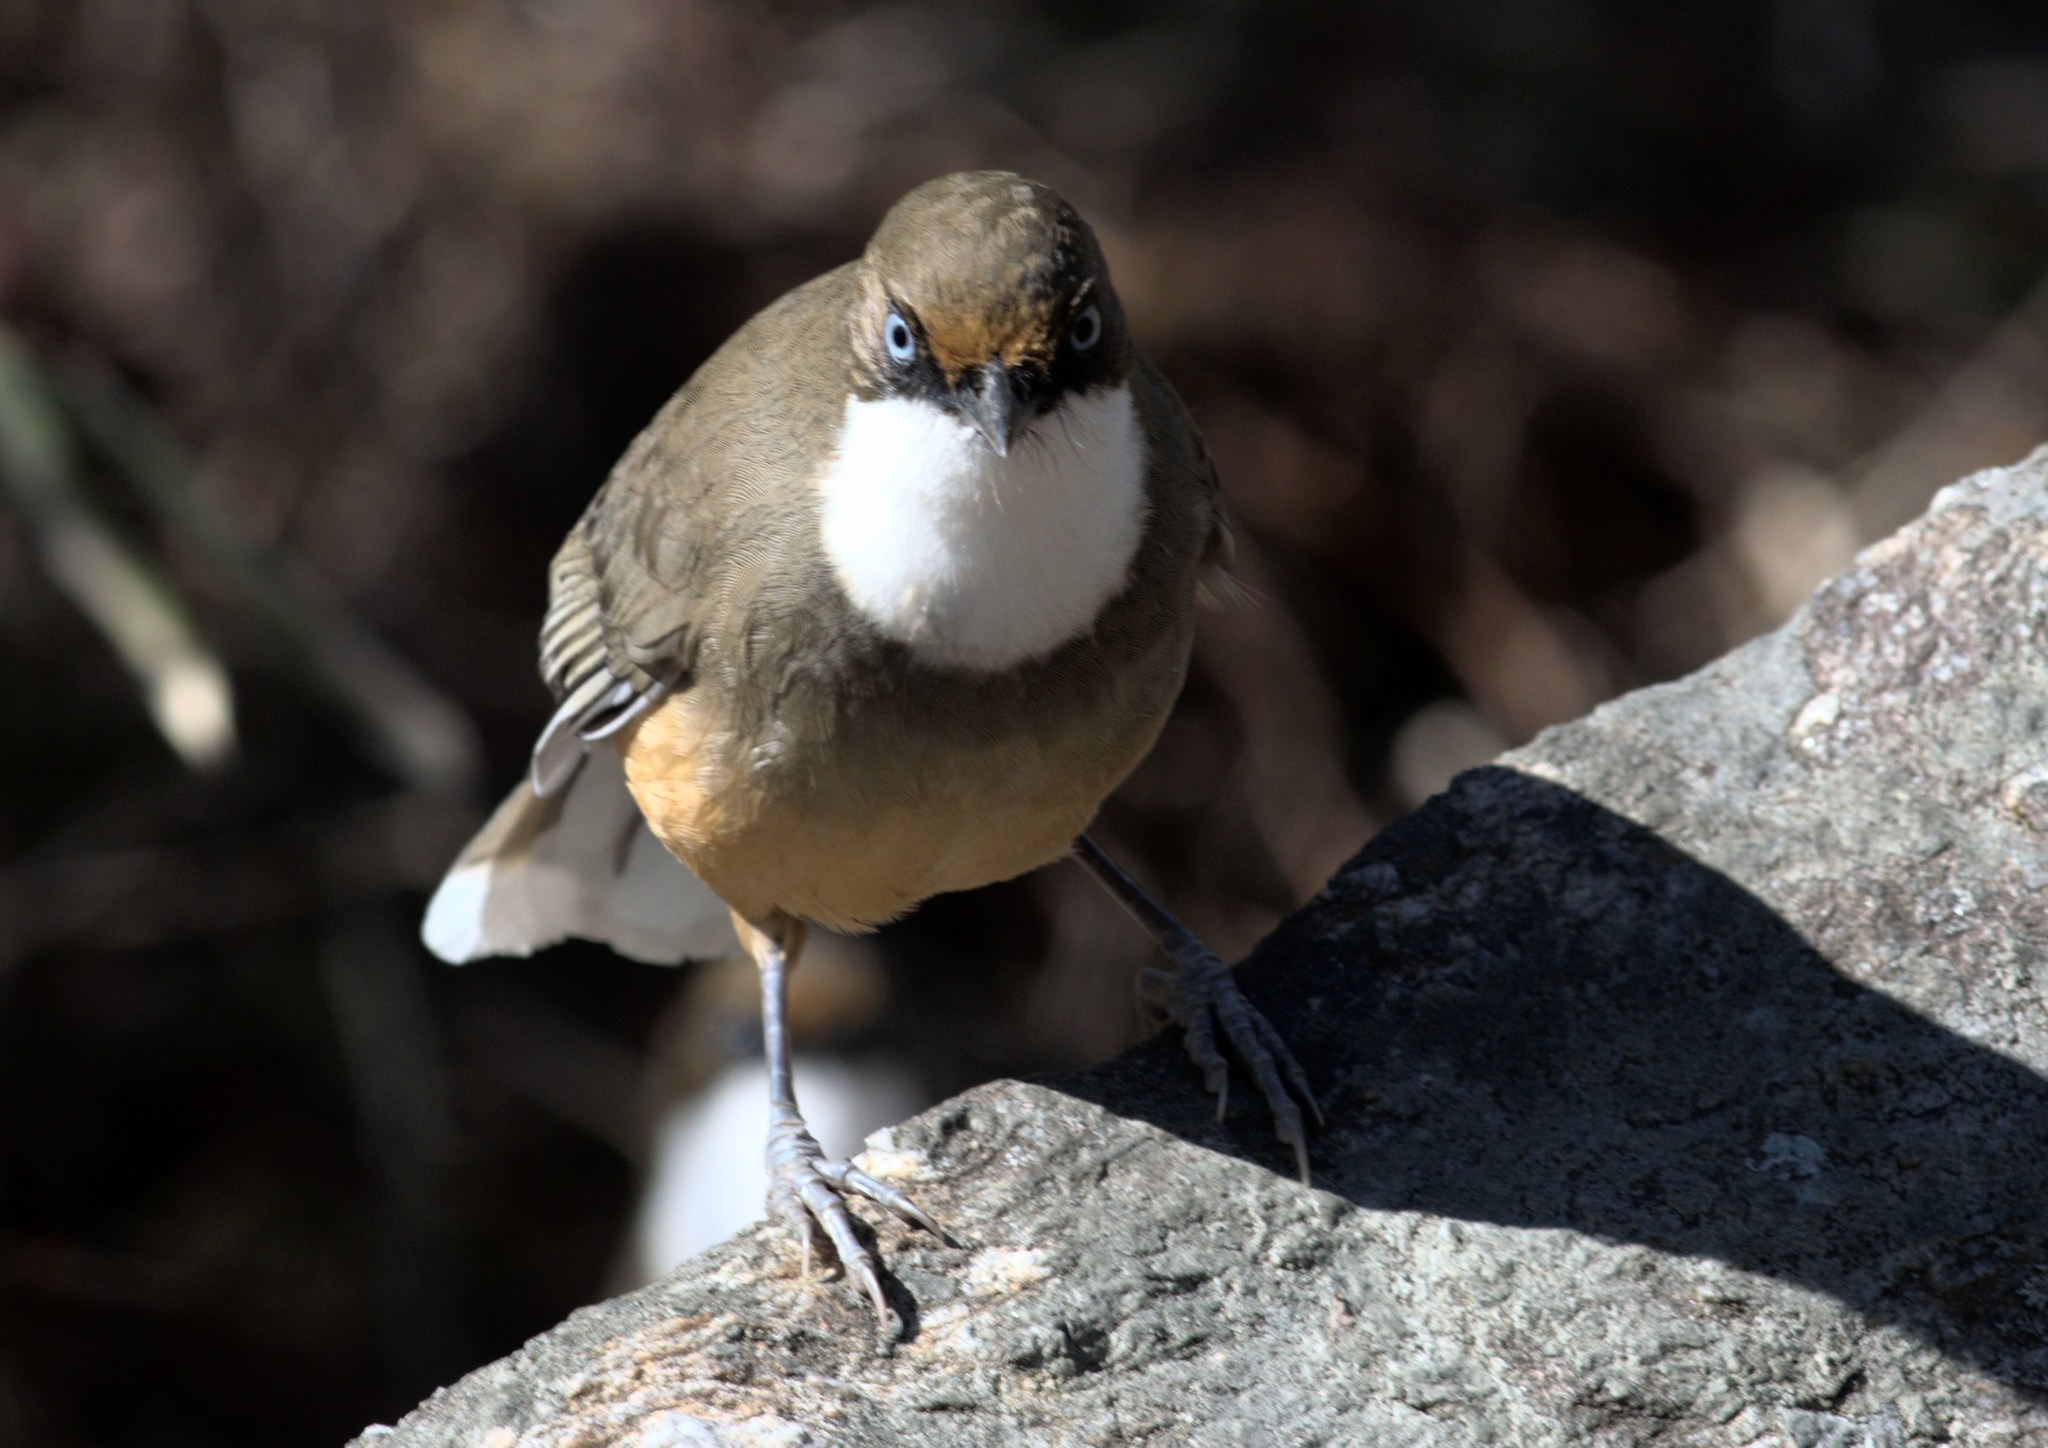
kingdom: Animalia
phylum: Chordata
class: Aves
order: Passeriformes
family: Leiothrichidae
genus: Garrulax
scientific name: Garrulax albogularis
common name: White-throated laughingthrush
